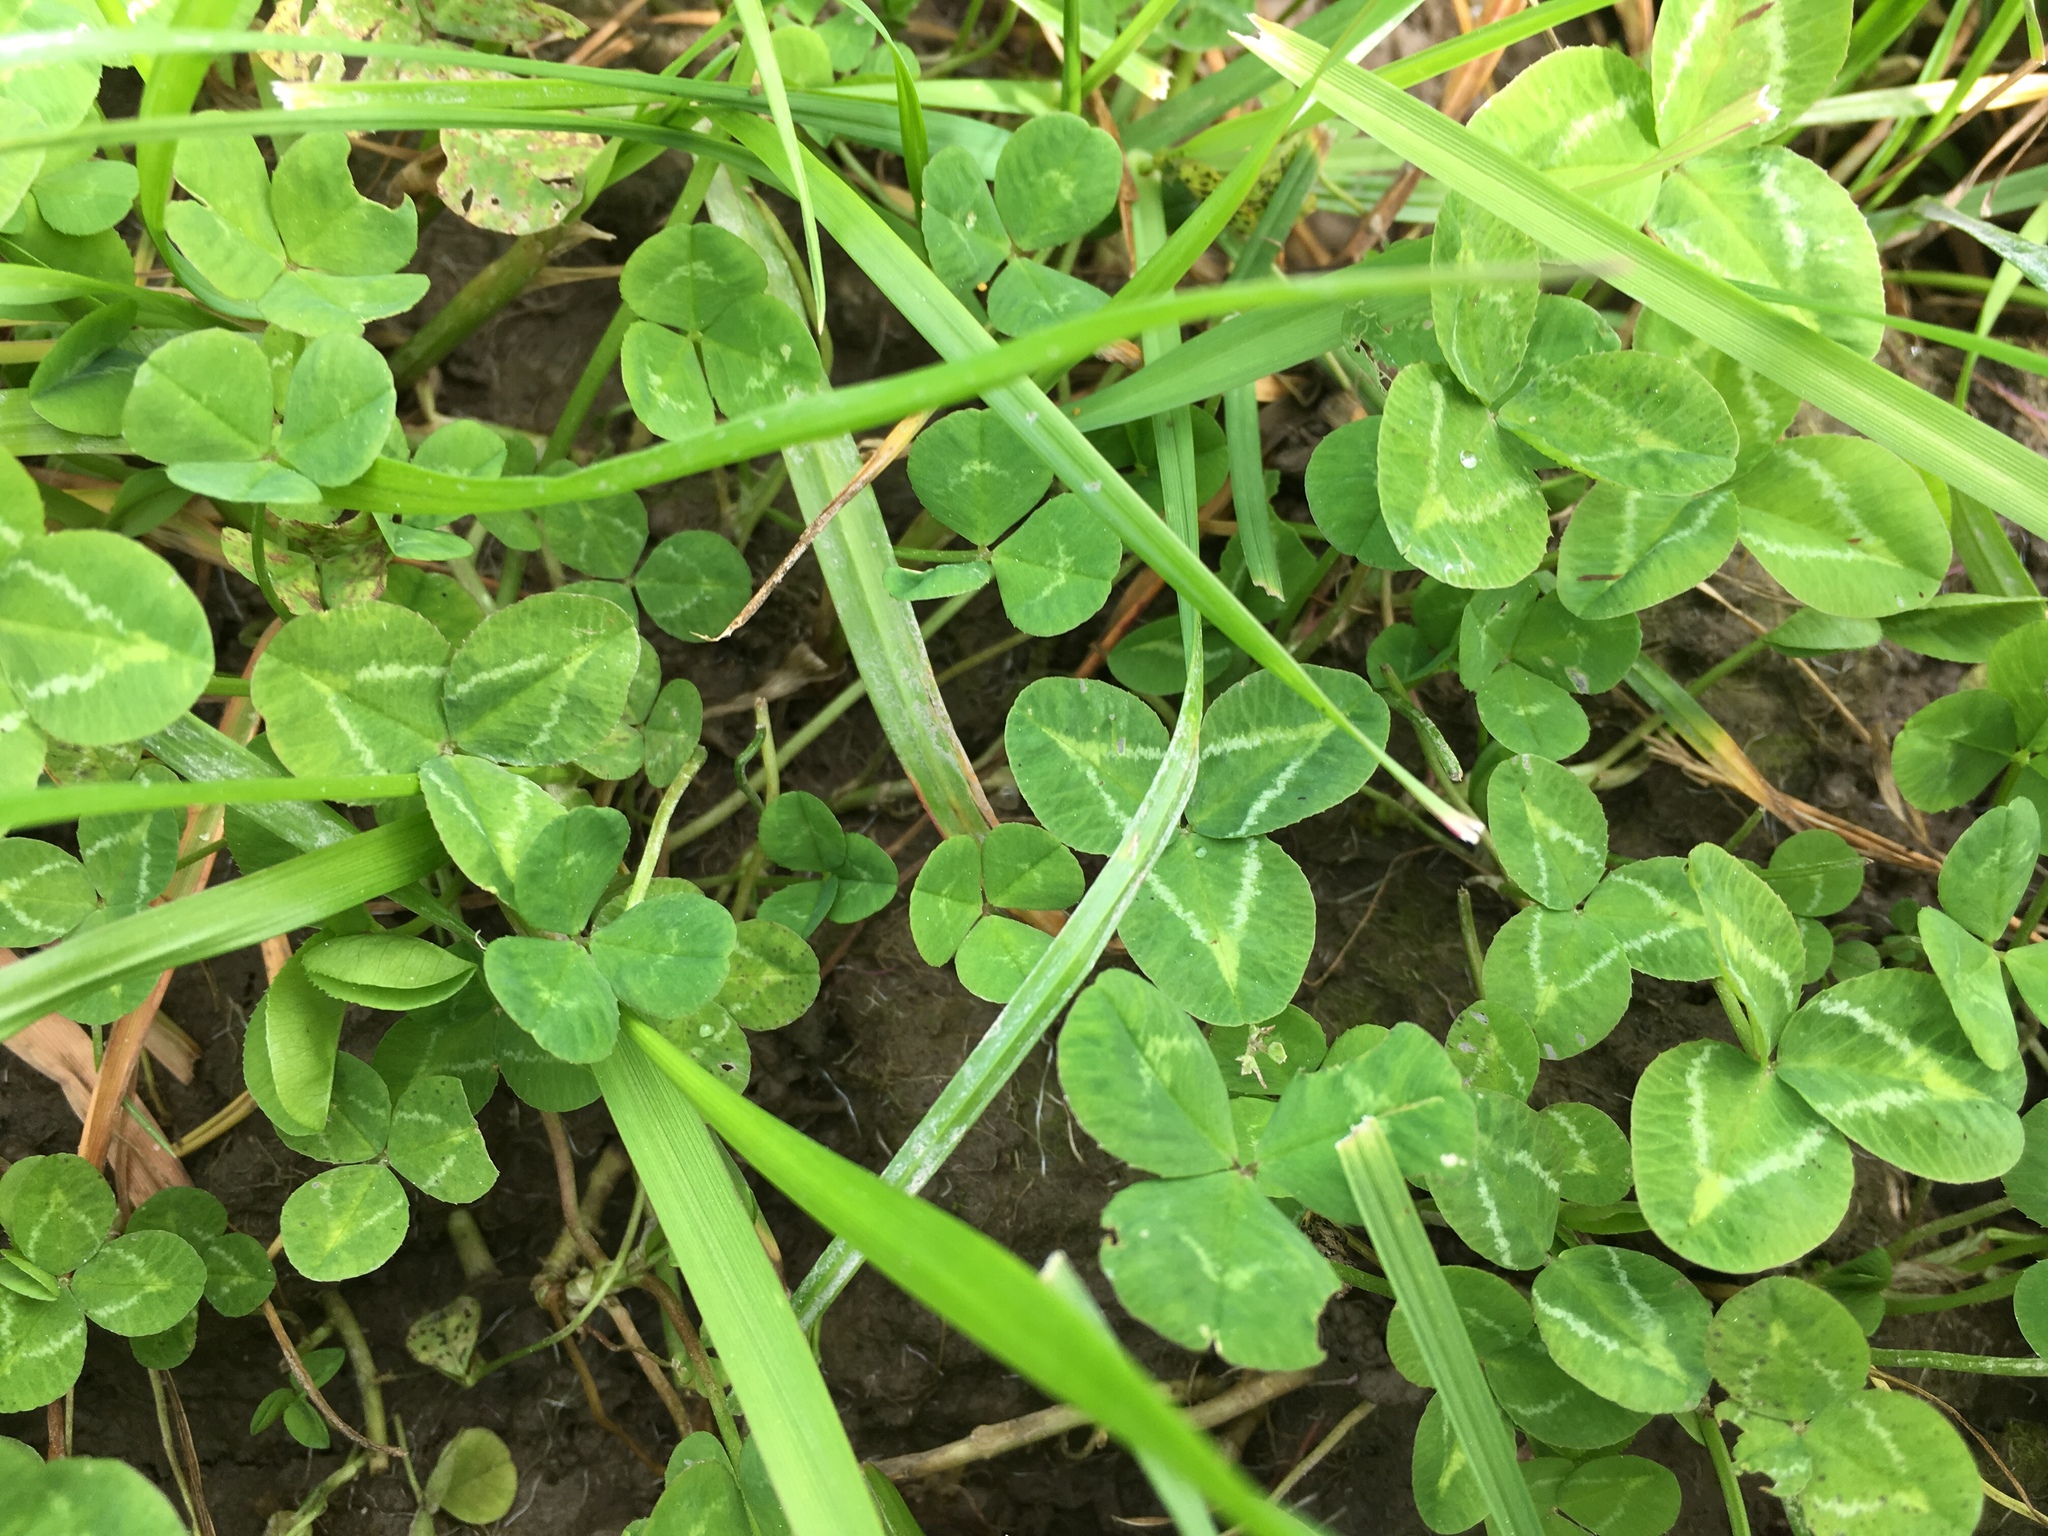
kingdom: Plantae
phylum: Tracheophyta
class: Magnoliopsida
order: Fabales
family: Fabaceae
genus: Trifolium
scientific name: Trifolium repens
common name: White clover
